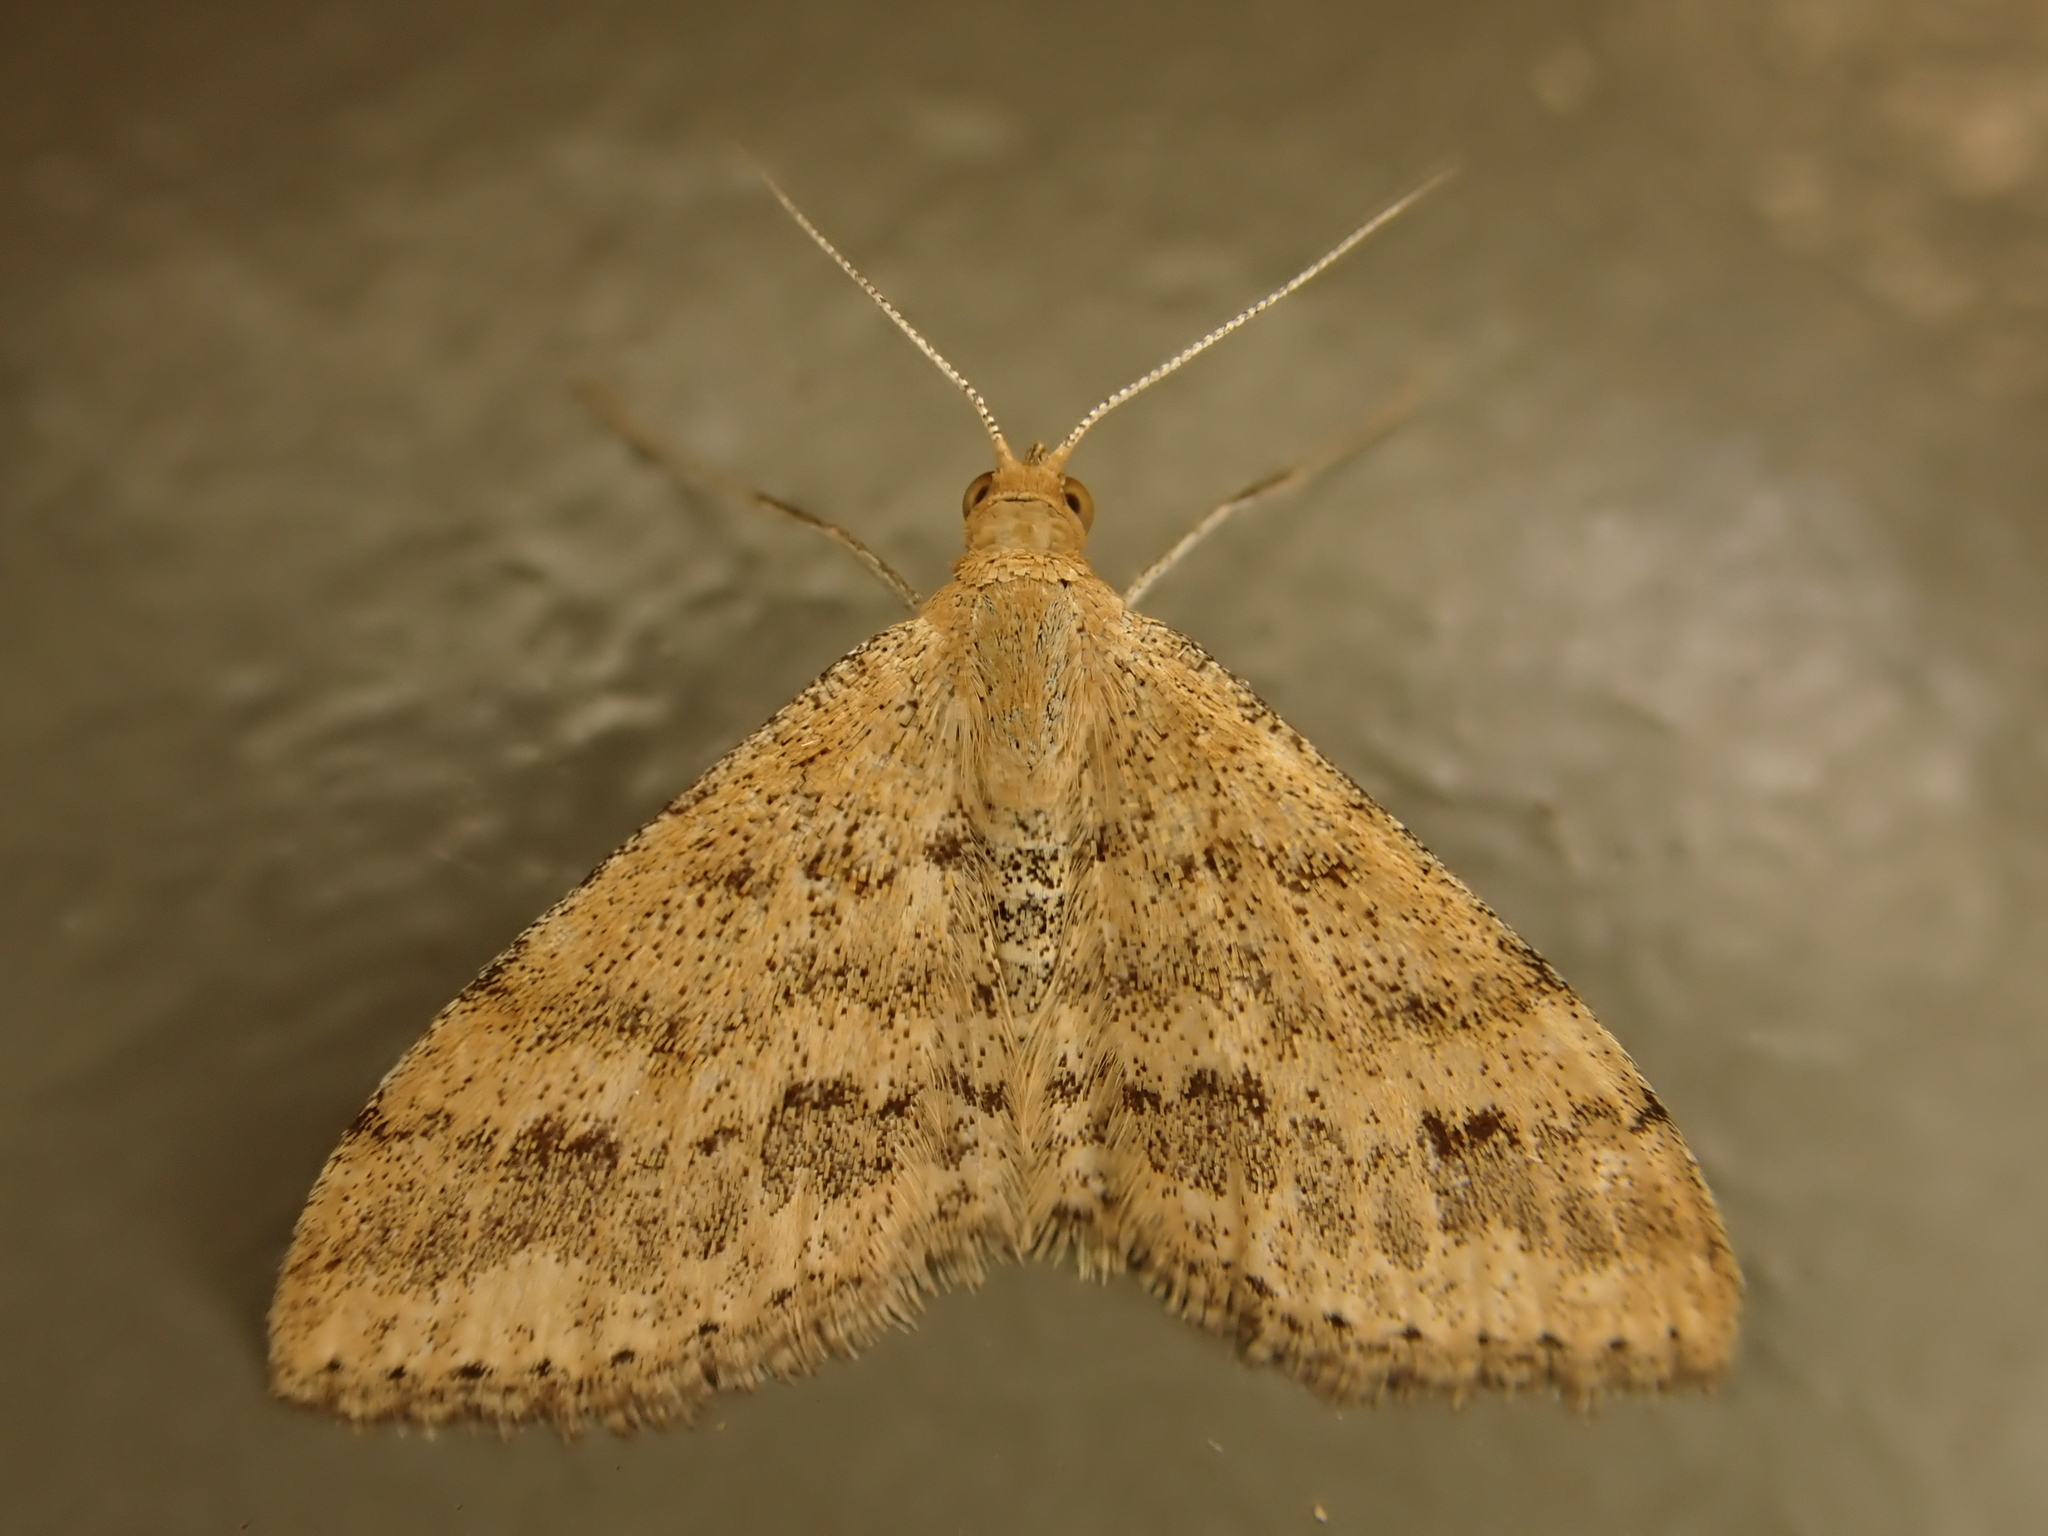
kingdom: Animalia
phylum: Arthropoda
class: Insecta
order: Lepidoptera
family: Geometridae
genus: Scopula
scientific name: Scopula rubraria
